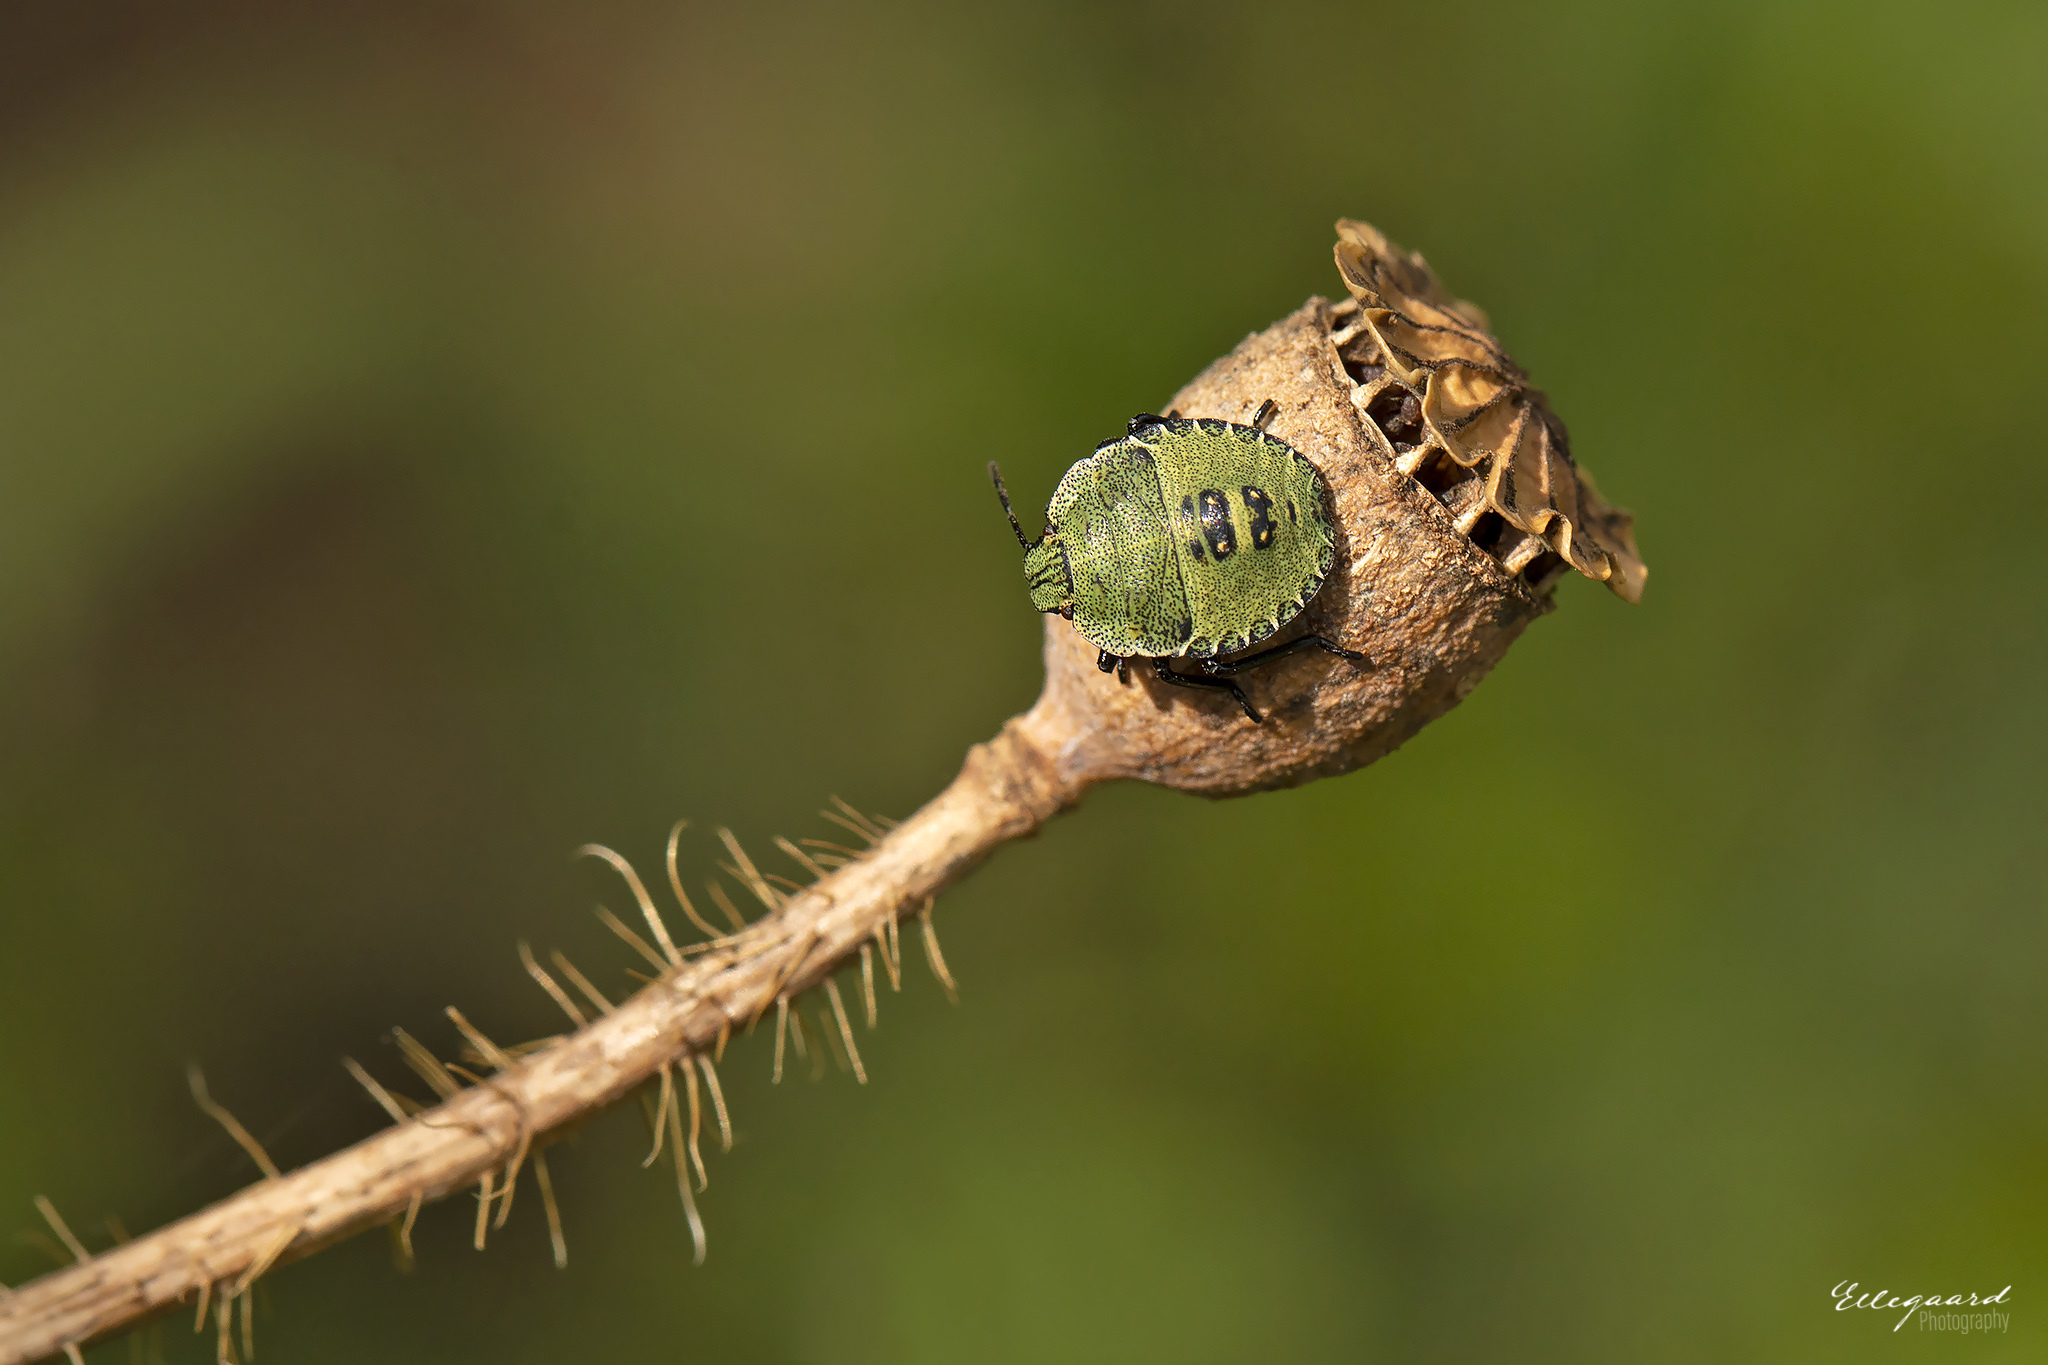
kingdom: Animalia
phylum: Arthropoda
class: Insecta
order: Hemiptera
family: Pentatomidae
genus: Palomena
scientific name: Palomena prasina
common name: Green shieldbug
